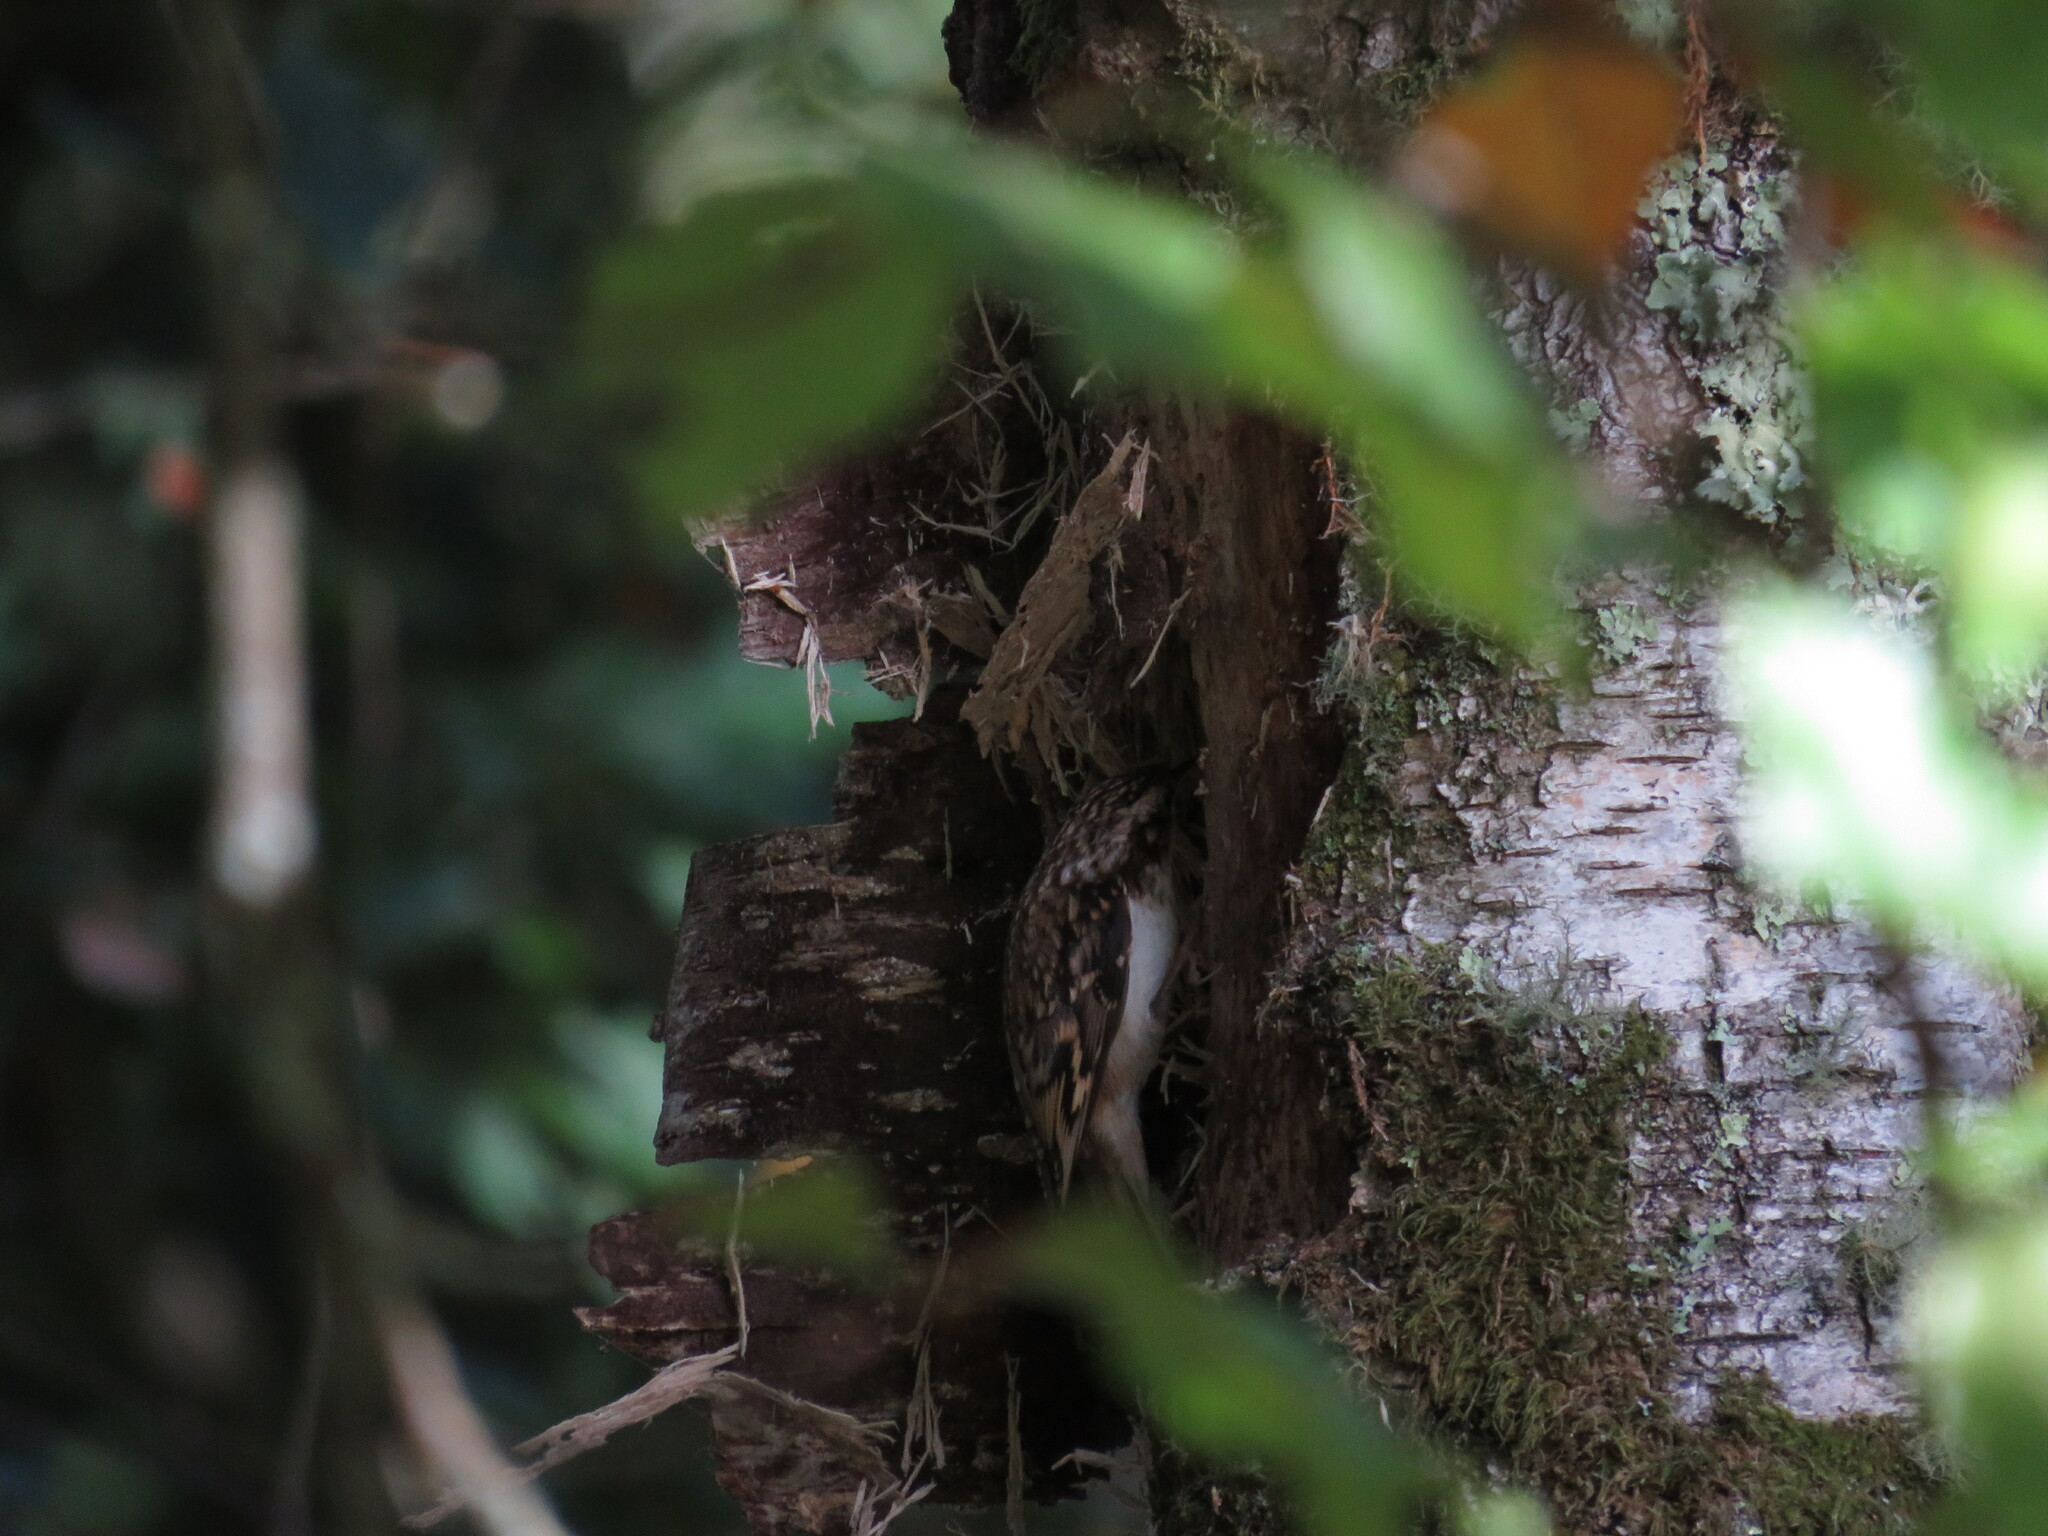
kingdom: Animalia
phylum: Chordata
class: Aves
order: Passeriformes
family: Certhiidae
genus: Certhia
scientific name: Certhia familiaris
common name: Eurasian treecreeper
